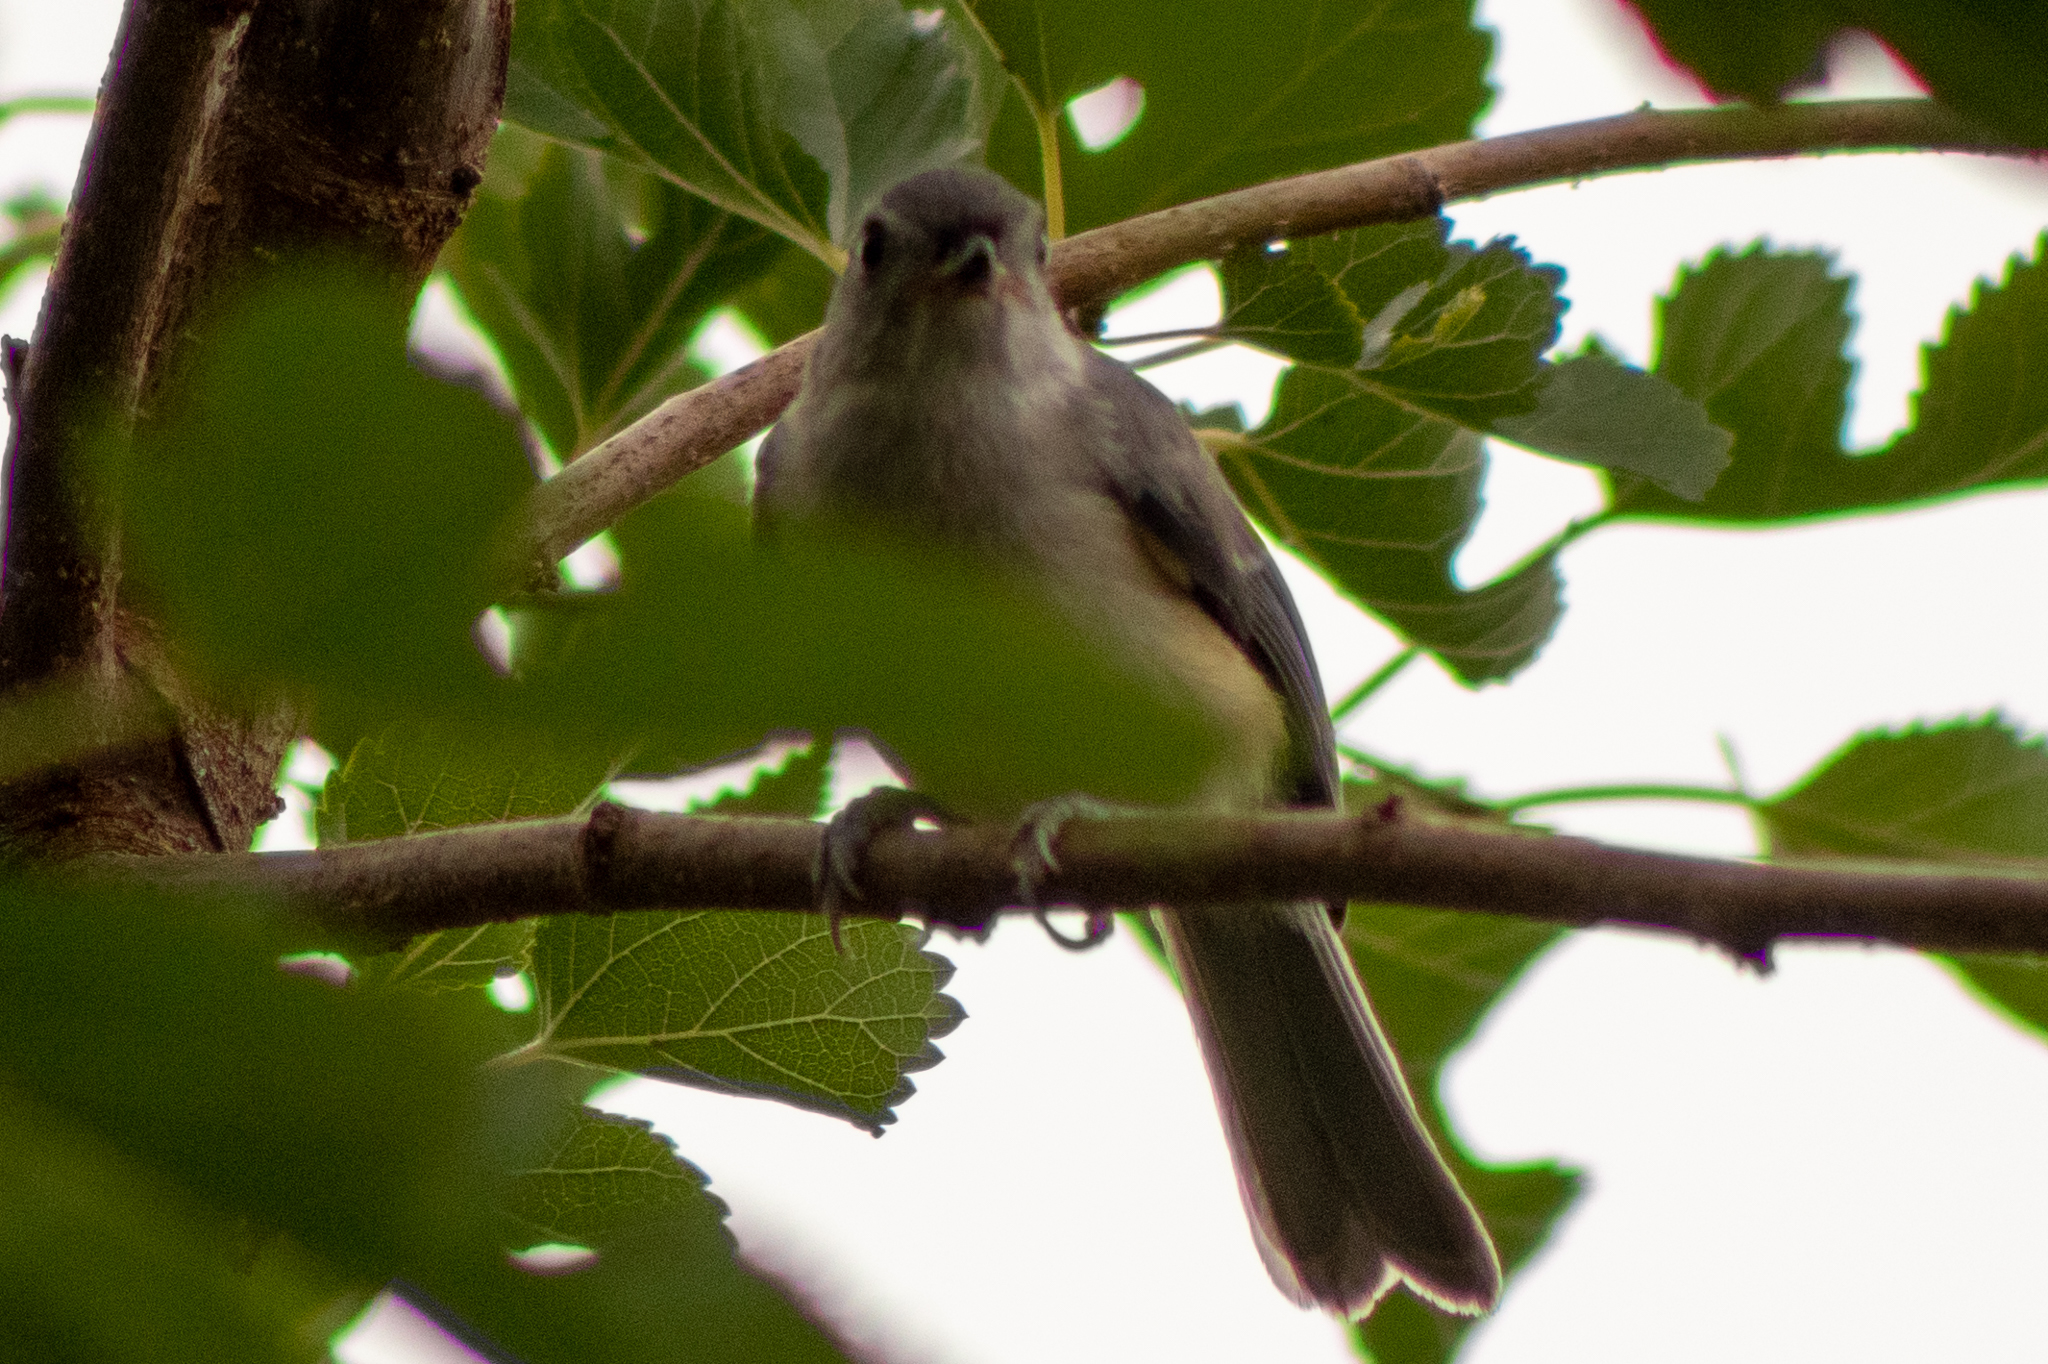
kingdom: Animalia
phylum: Chordata
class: Aves
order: Passeriformes
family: Paridae
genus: Baeolophus
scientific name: Baeolophus bicolor
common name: Tufted titmouse
